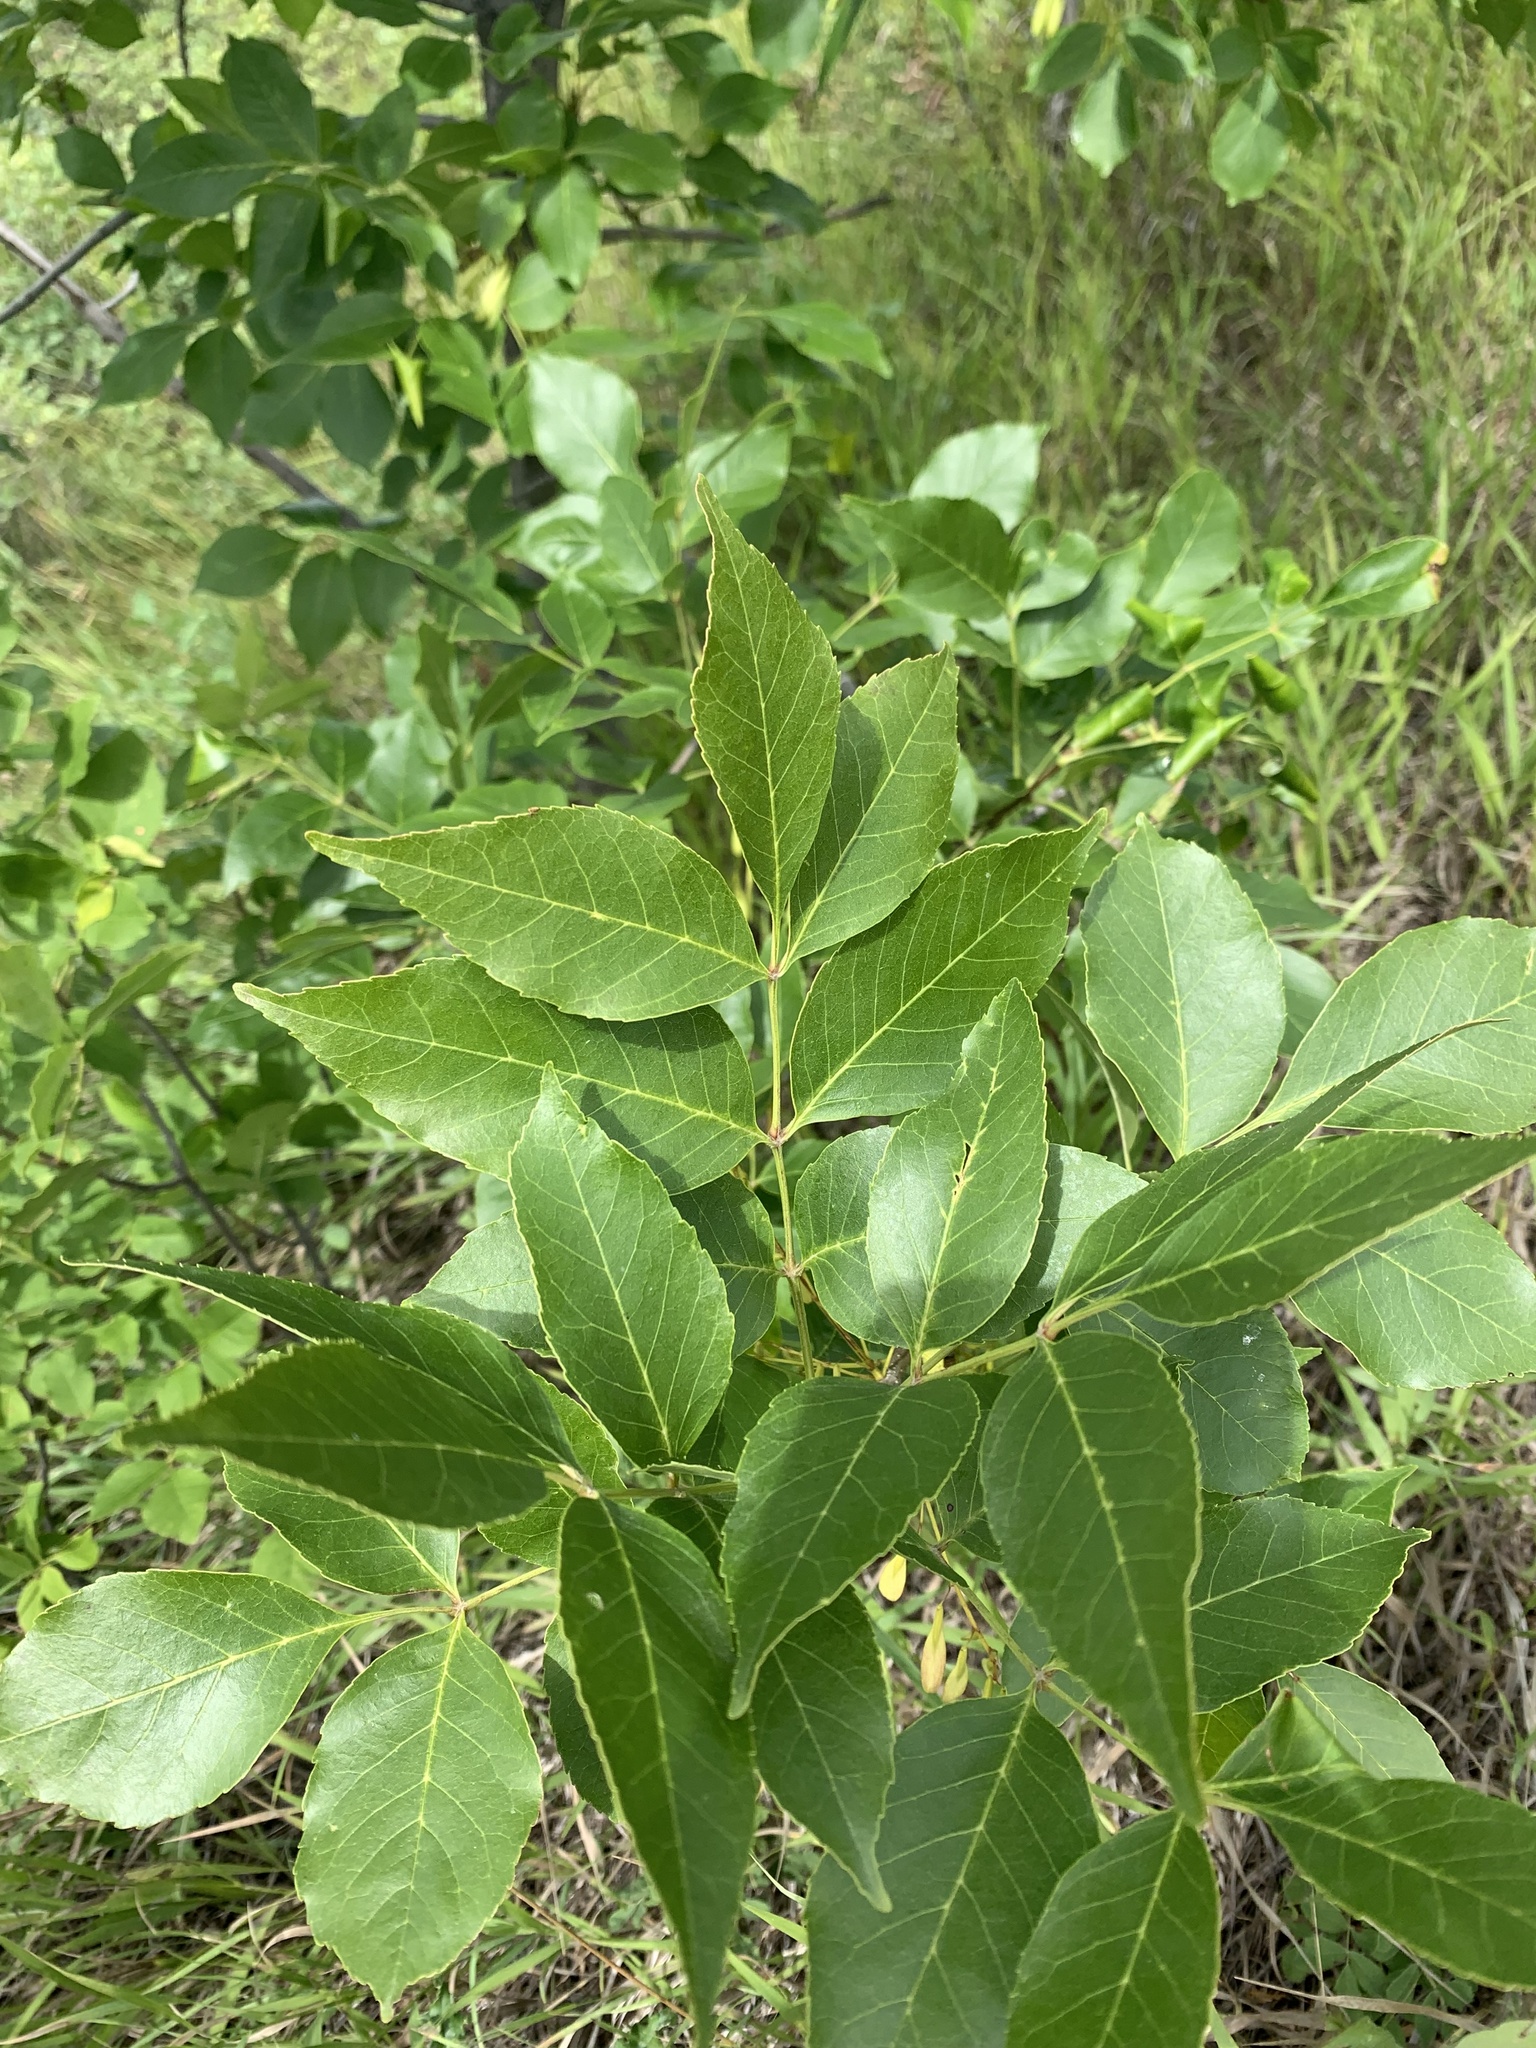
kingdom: Plantae
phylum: Tracheophyta
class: Magnoliopsida
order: Lamiales
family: Oleaceae
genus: Fraxinus
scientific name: Fraxinus pennsylvanica
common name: Green ash
